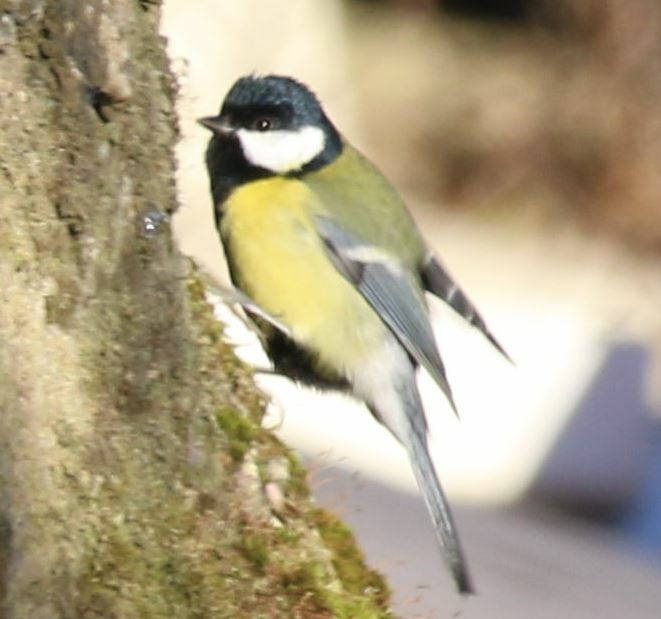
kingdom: Animalia
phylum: Chordata
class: Aves
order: Passeriformes
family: Paridae
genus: Parus
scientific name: Parus major
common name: Great tit
